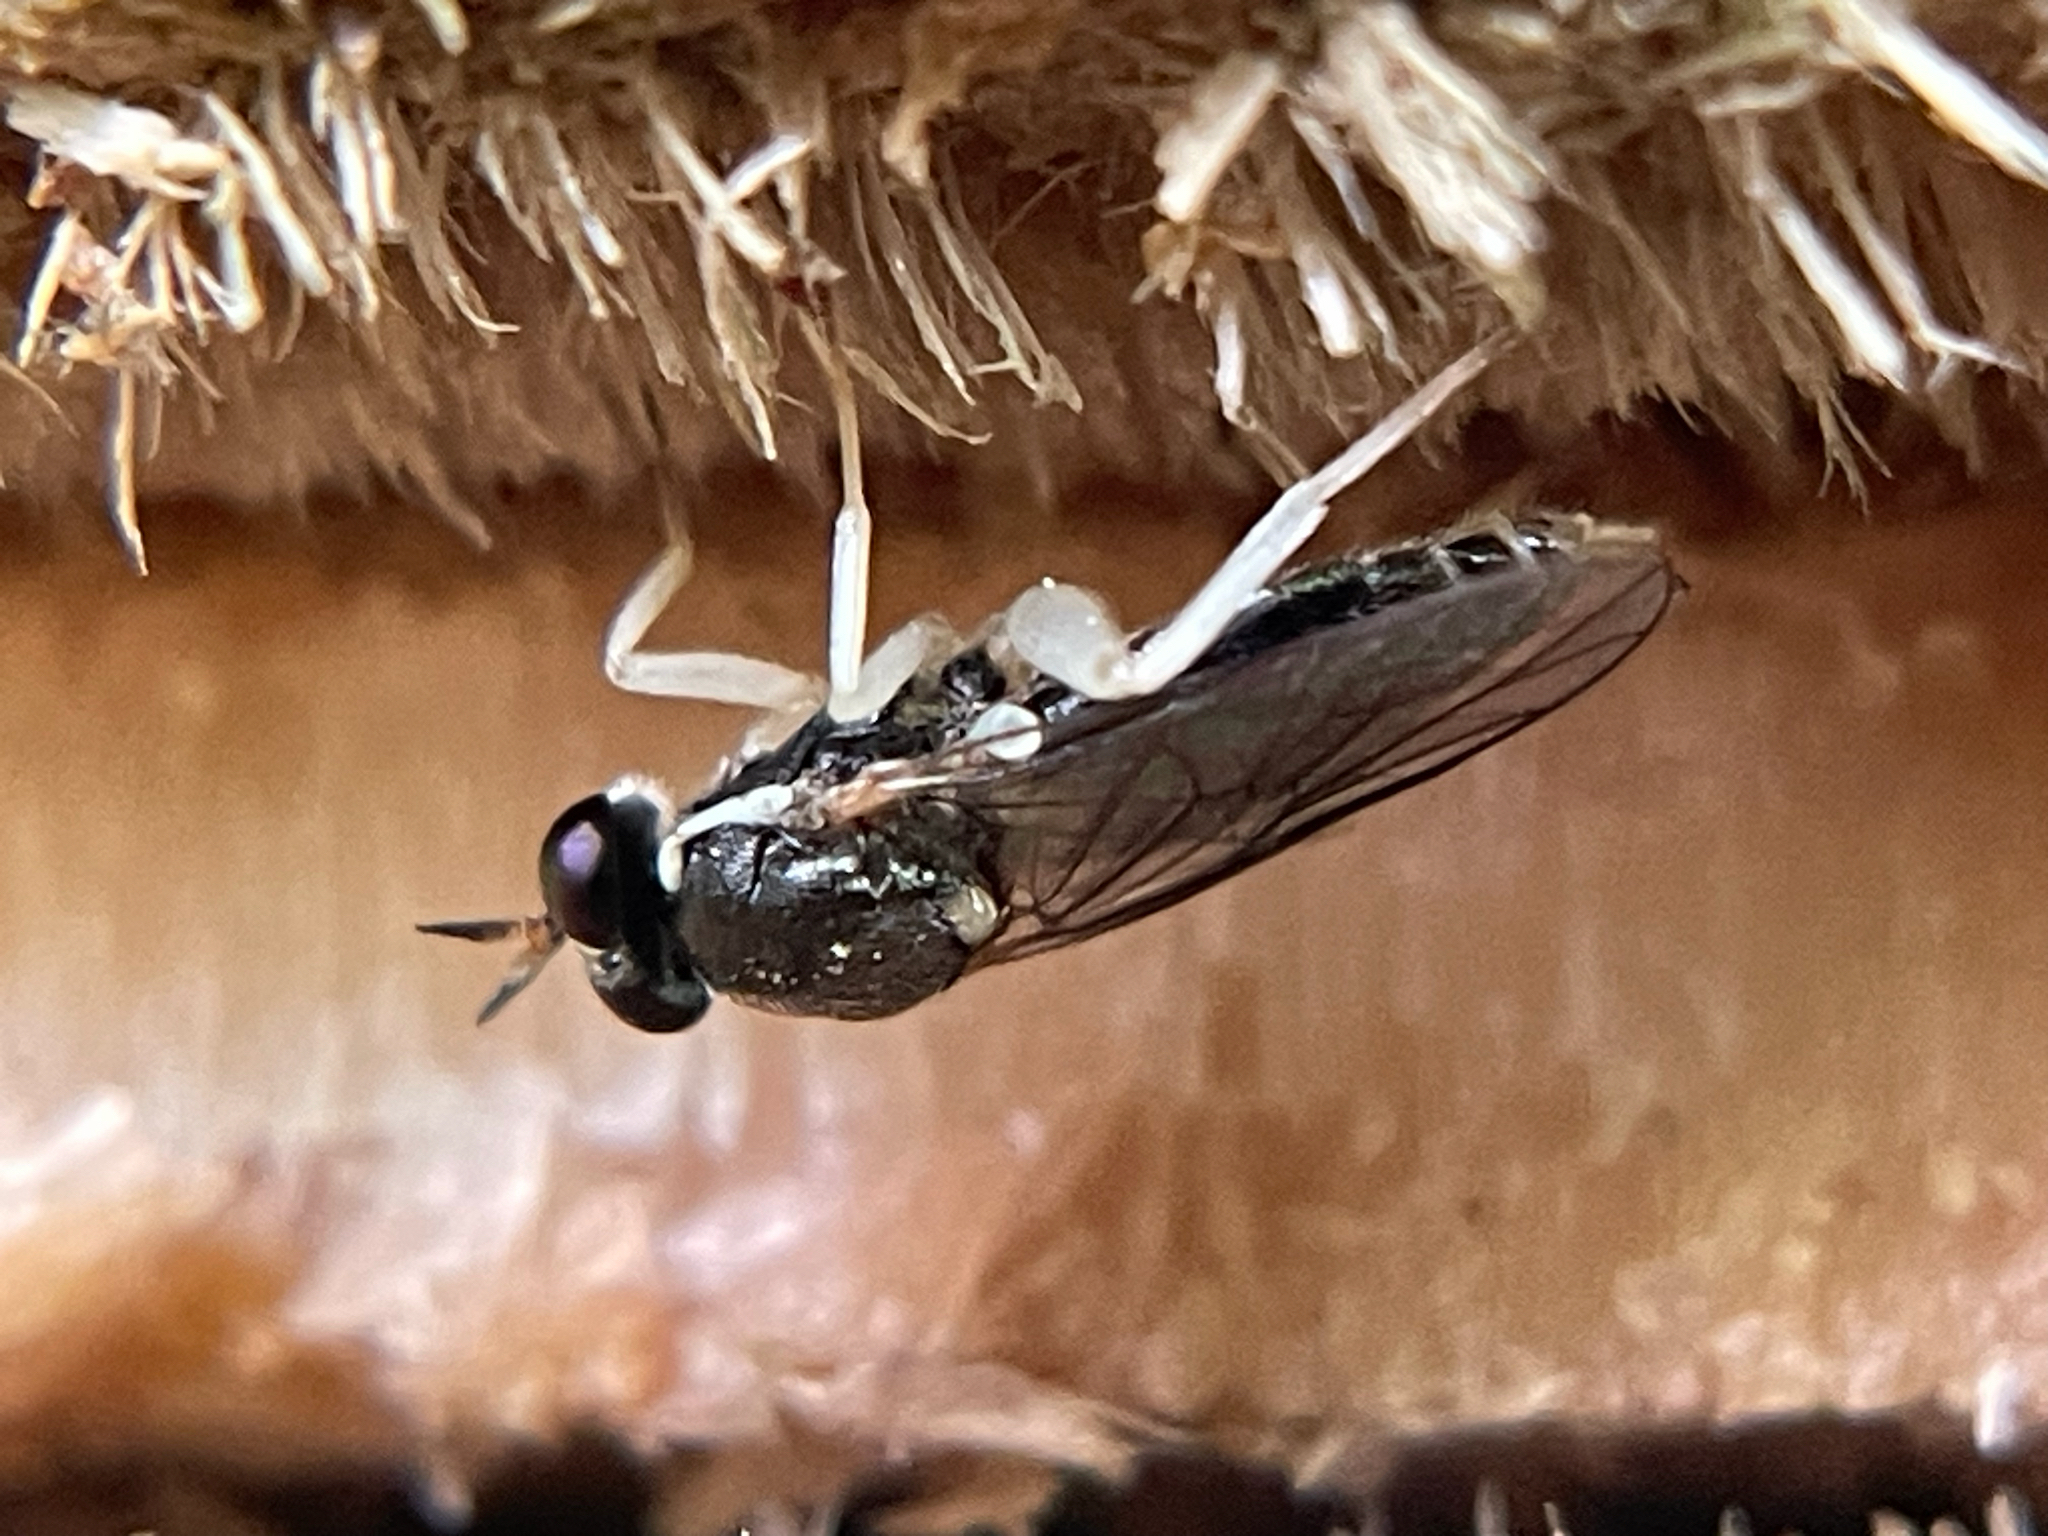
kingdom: Animalia
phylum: Arthropoda
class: Insecta
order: Diptera
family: Xylomyidae
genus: Solva
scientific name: Solva pallipes
